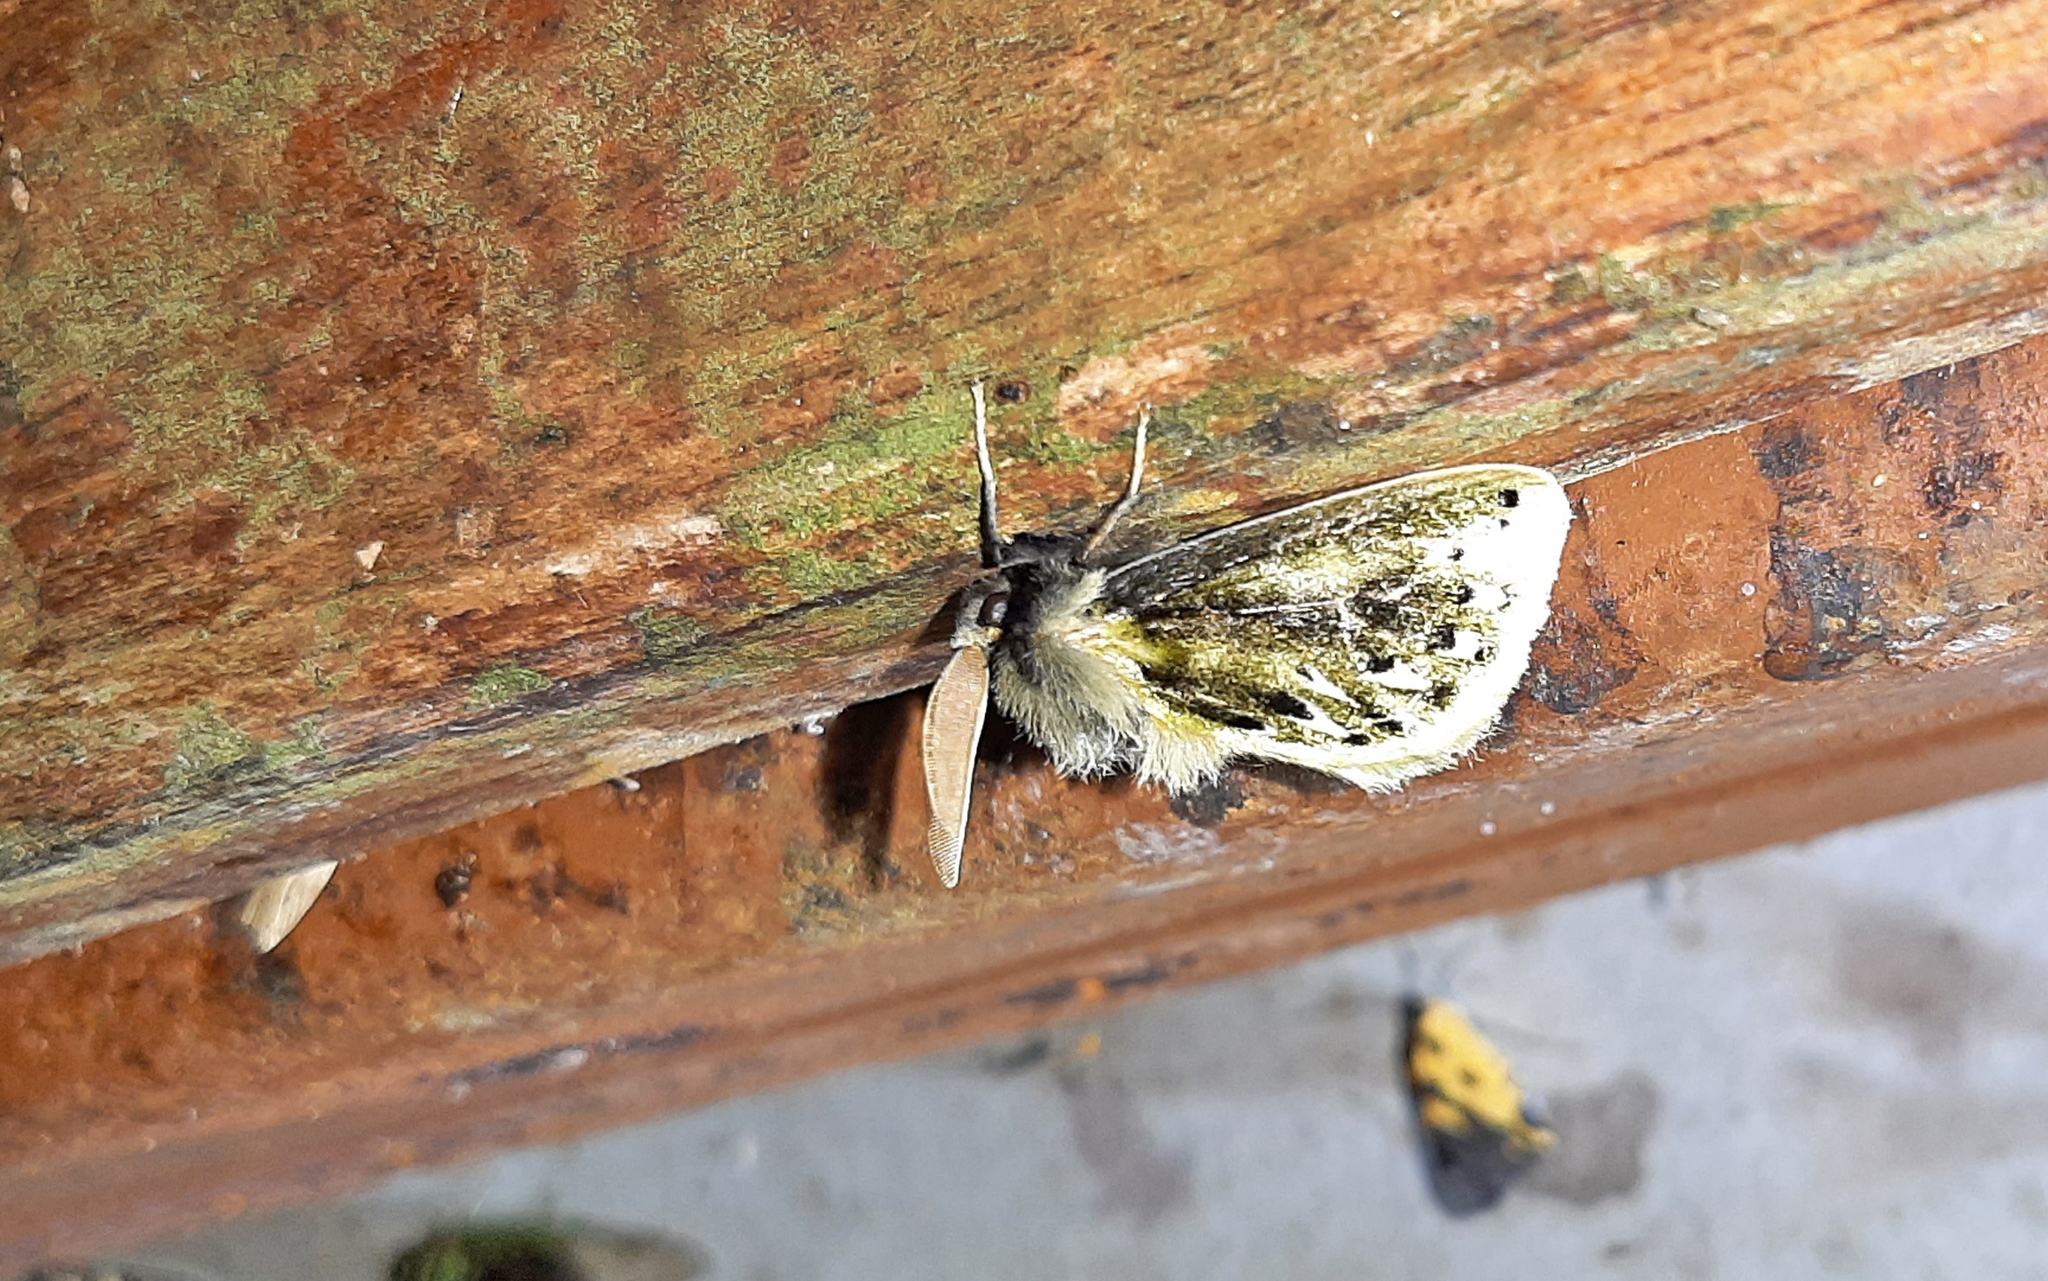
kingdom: Animalia
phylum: Arthropoda
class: Insecta
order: Lepidoptera
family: Megalopygidae
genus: Macara
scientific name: Macara alydda
